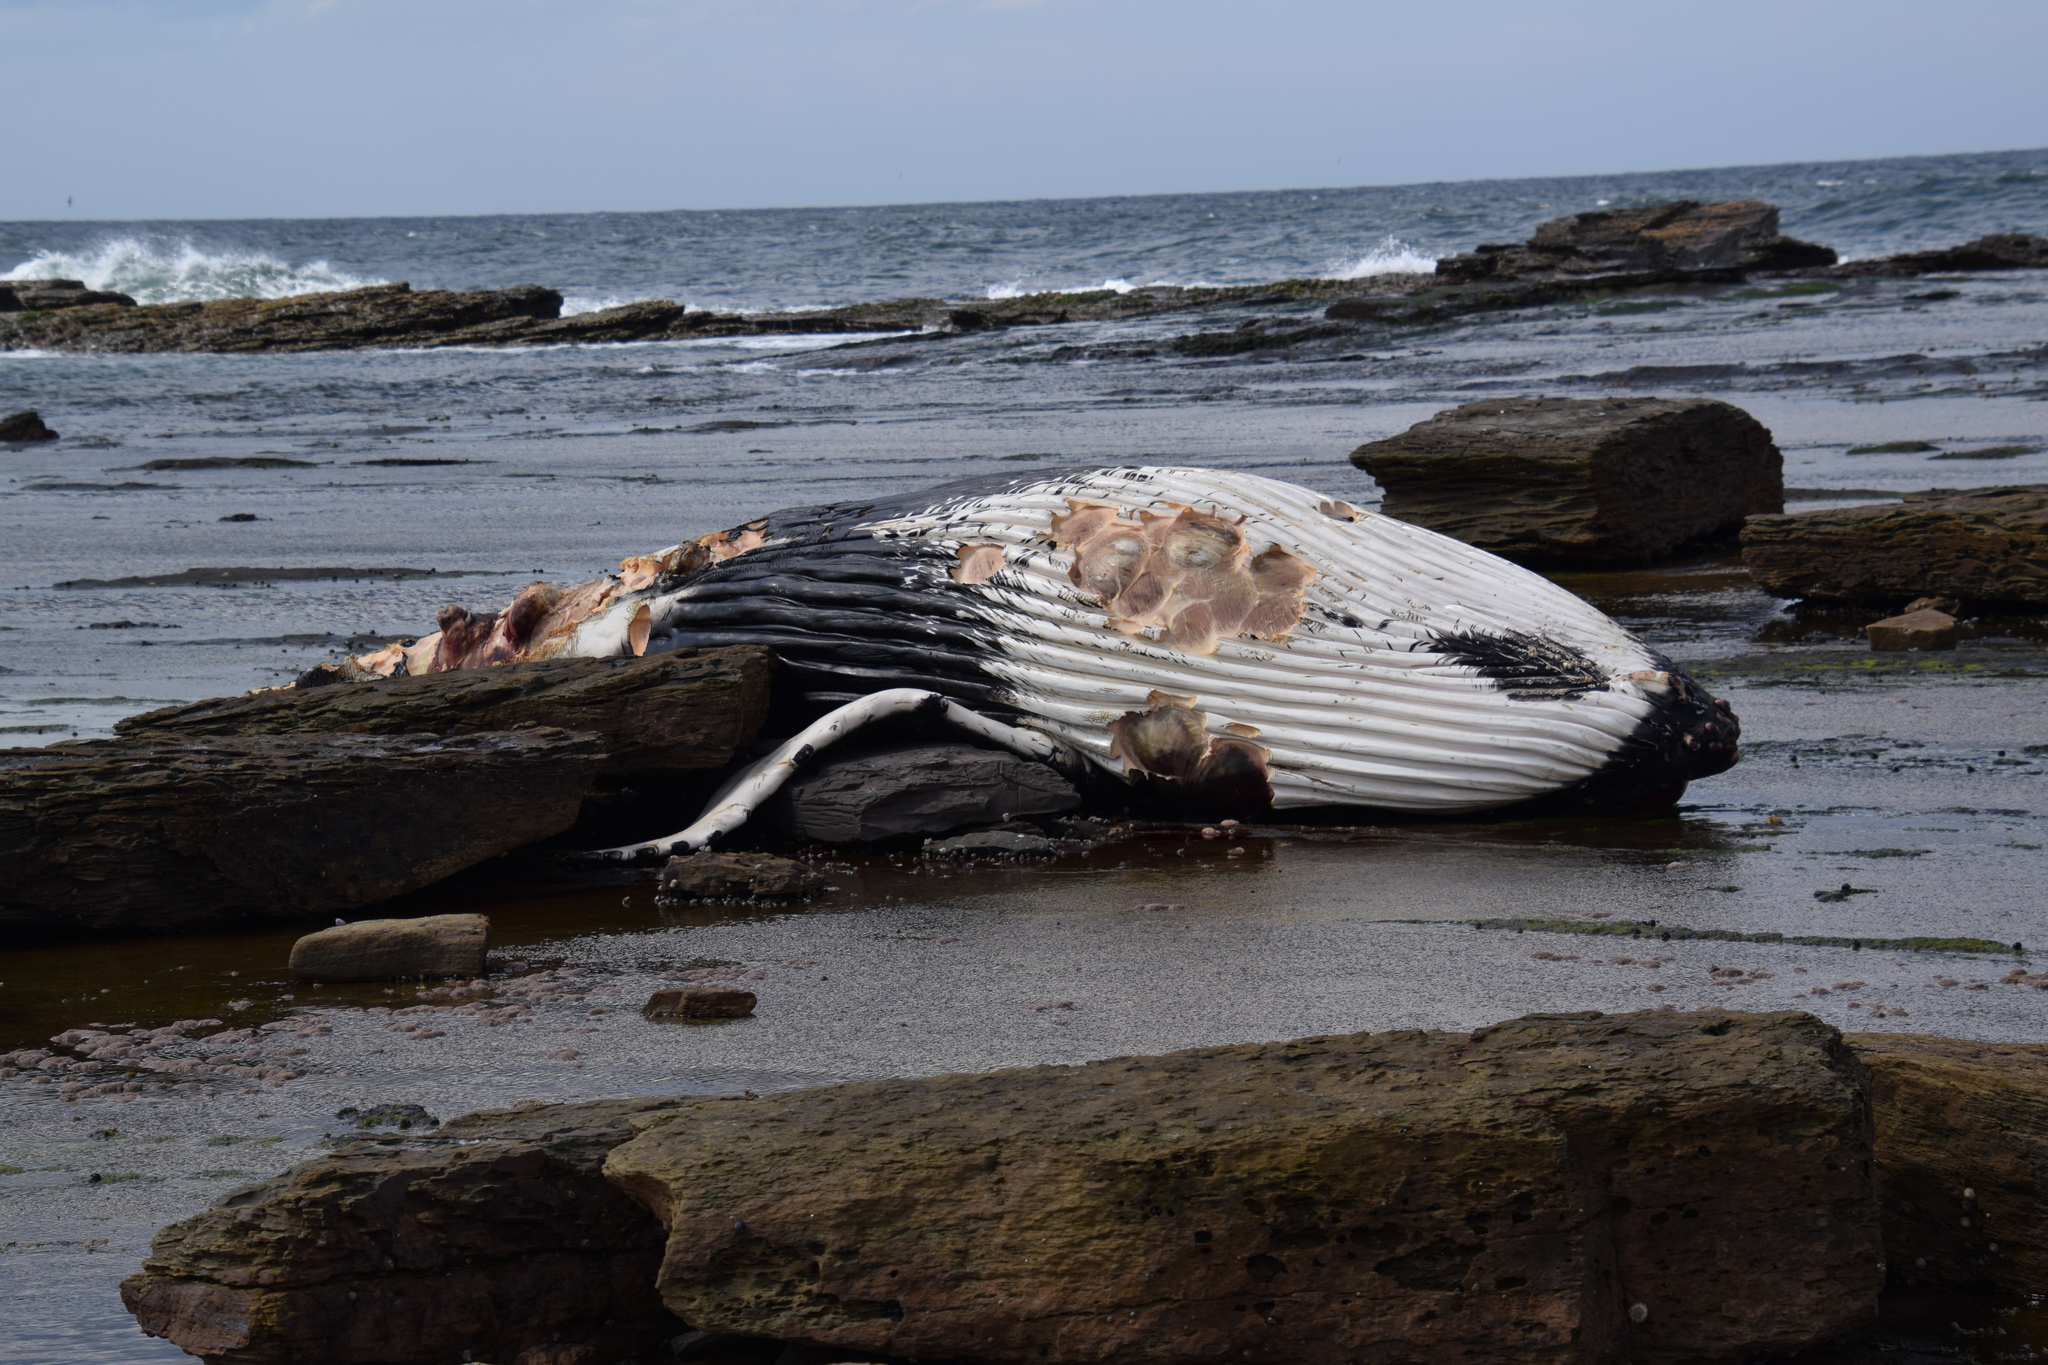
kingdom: Animalia
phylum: Chordata
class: Mammalia
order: Cetacea
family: Balaenopteridae
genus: Megaptera
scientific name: Megaptera novaeangliae
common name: Humpback whale
